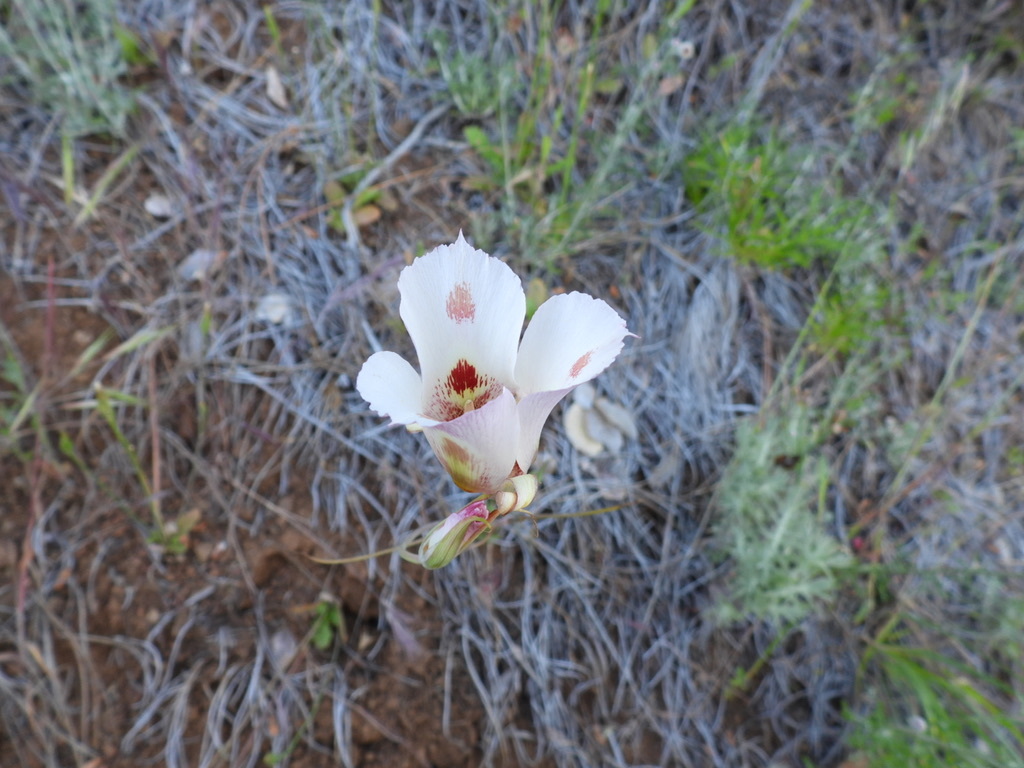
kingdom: Plantae
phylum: Tracheophyta
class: Liliopsida
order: Liliales
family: Liliaceae
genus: Calochortus
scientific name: Calochortus venustus
